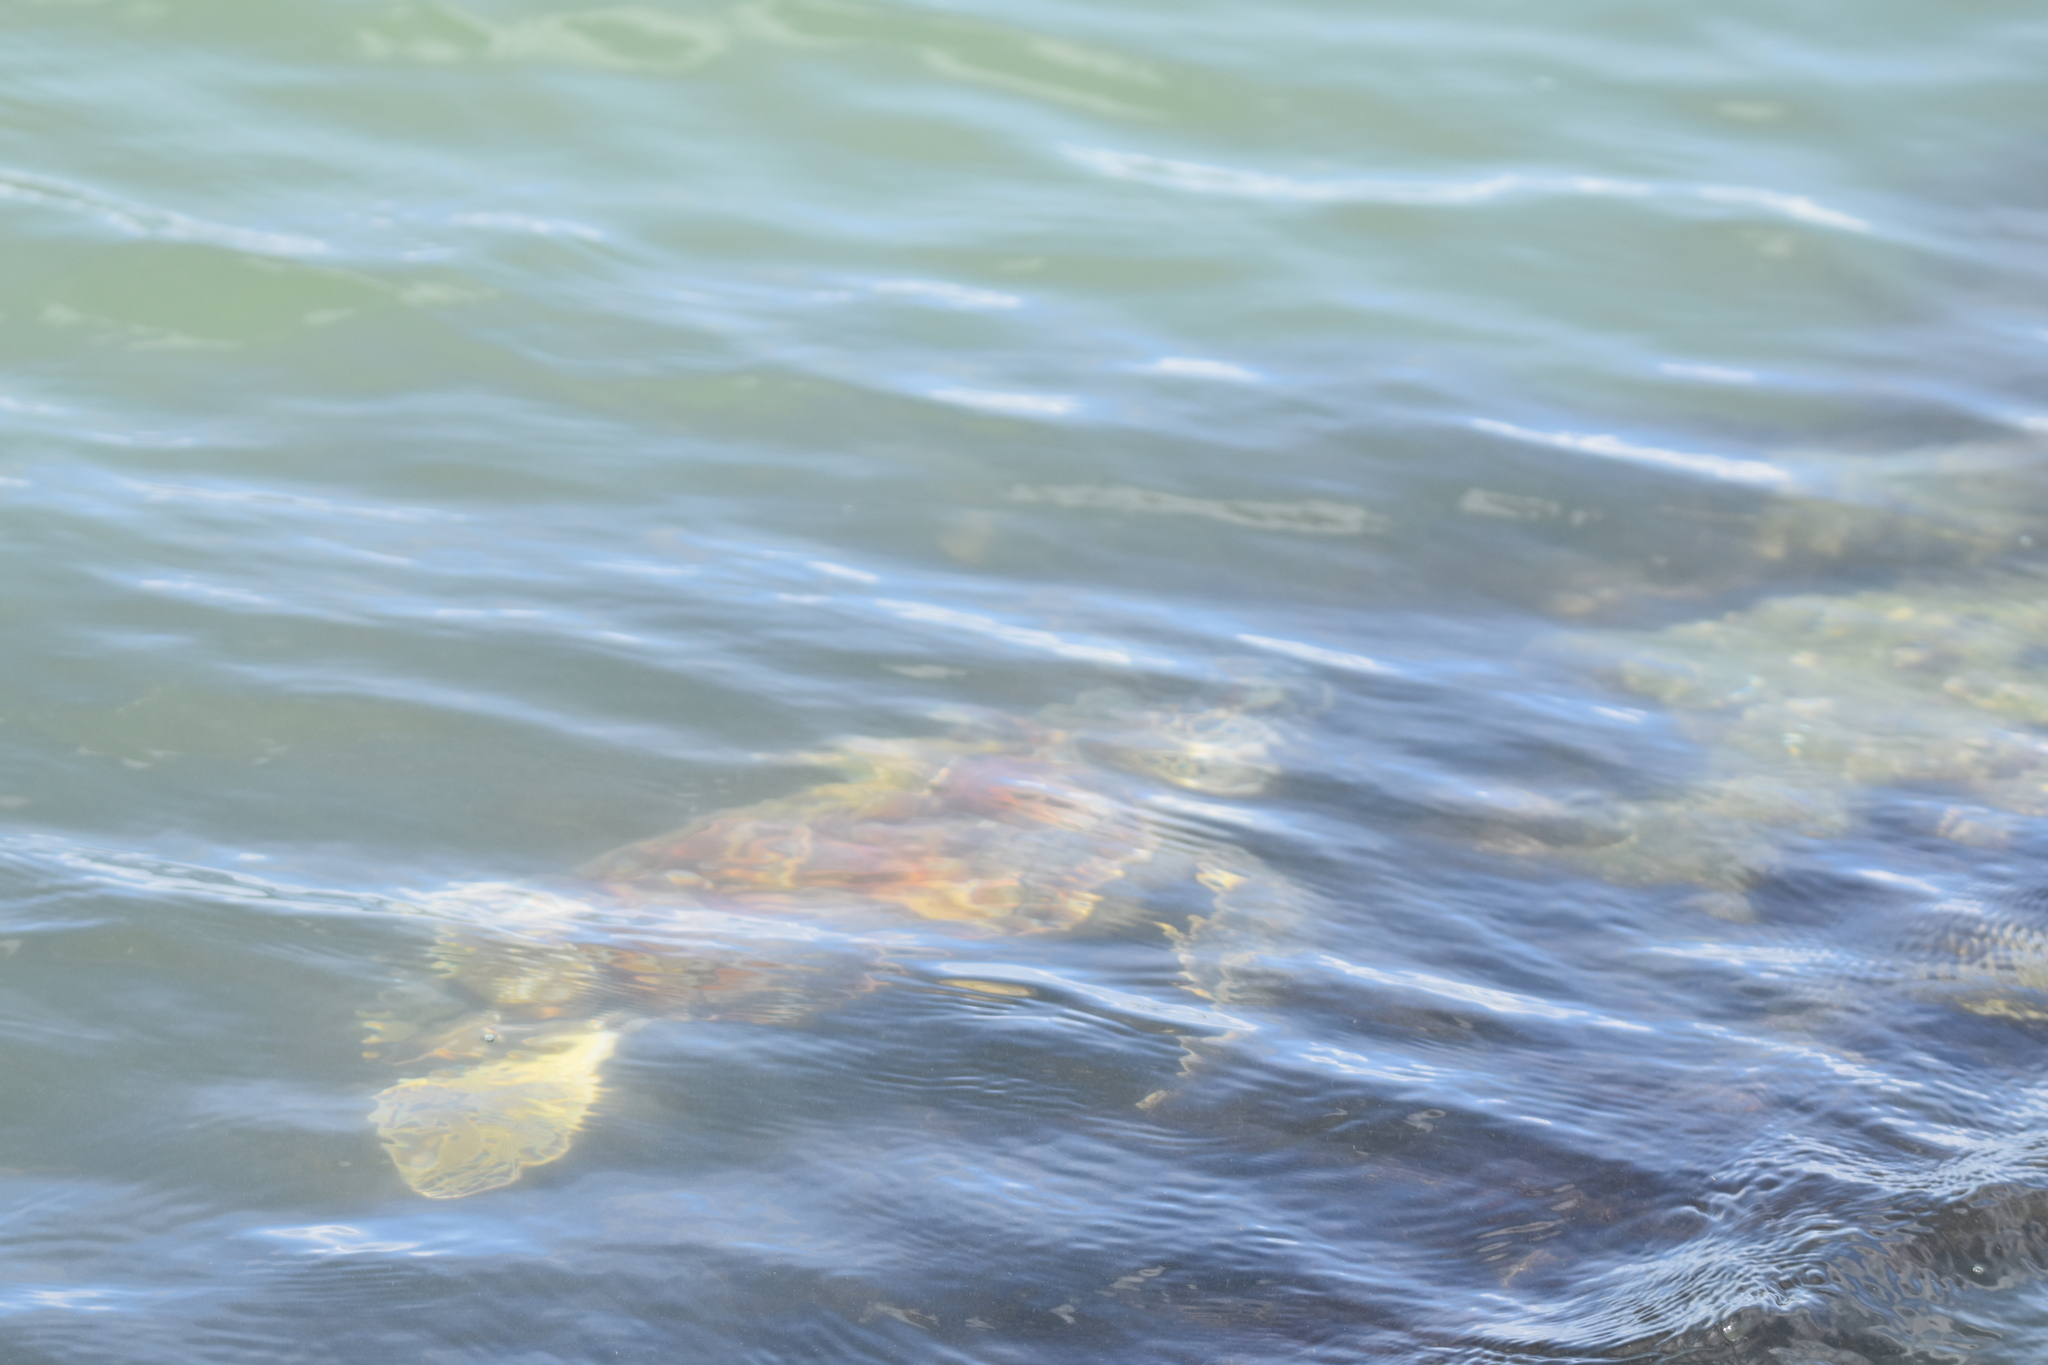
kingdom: Animalia
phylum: Chordata
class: Testudines
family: Cheloniidae
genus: Chelonia
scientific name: Chelonia mydas
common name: Green turtle
